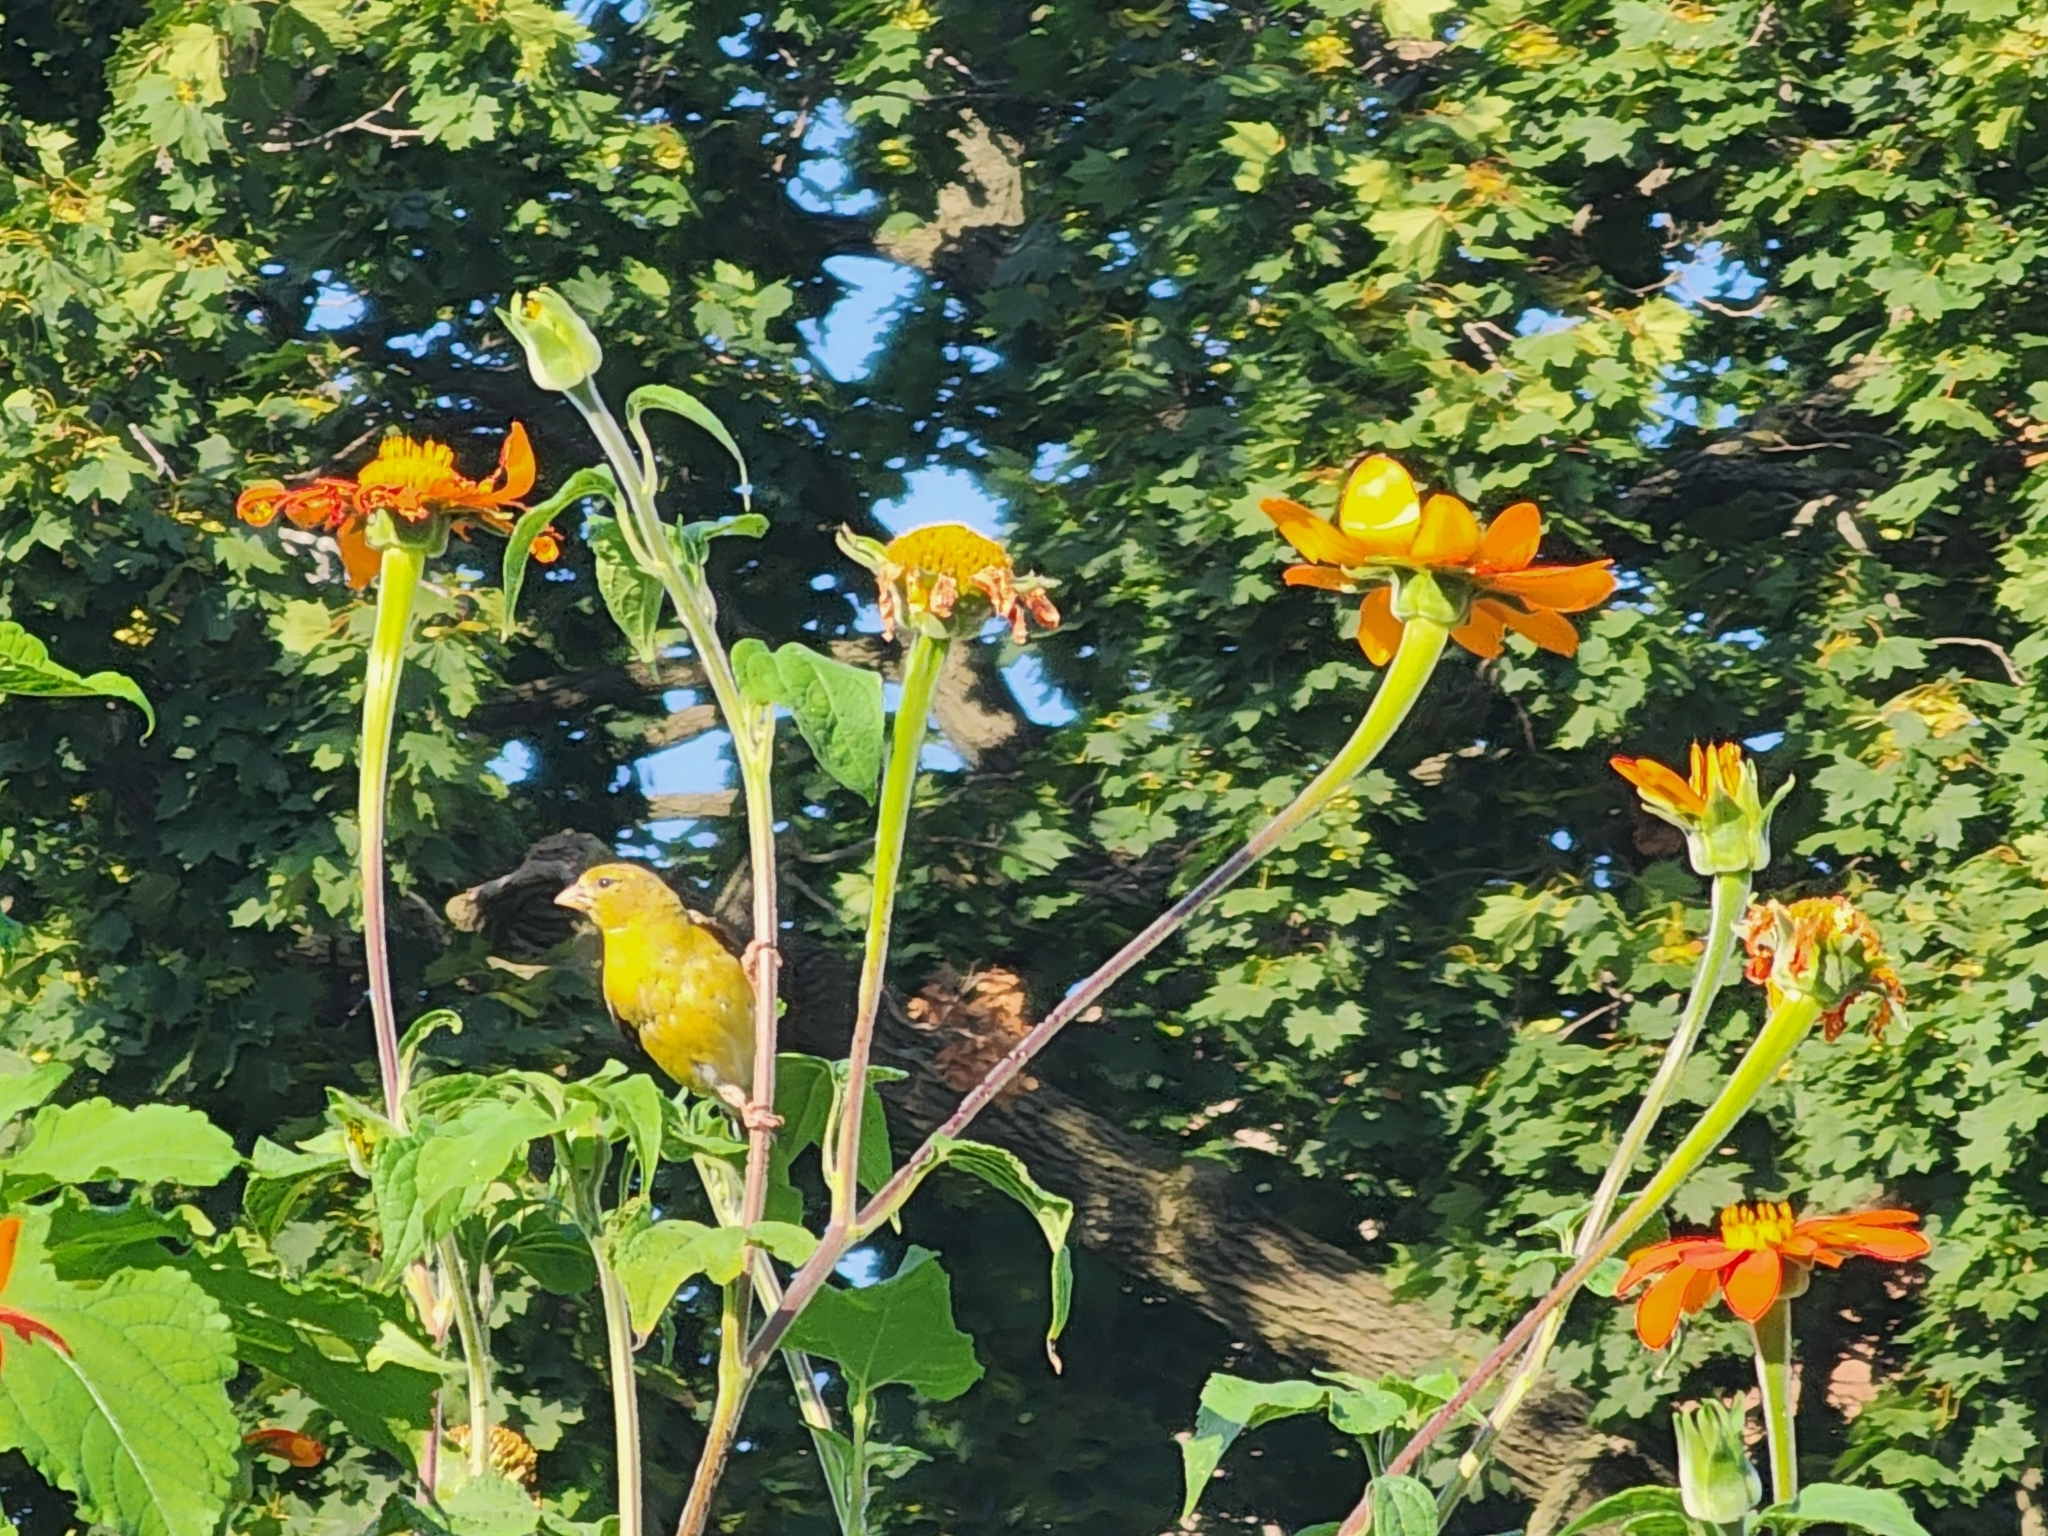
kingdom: Animalia
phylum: Chordata
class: Aves
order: Passeriformes
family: Fringillidae
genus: Spinus
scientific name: Spinus tristis
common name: American goldfinch
